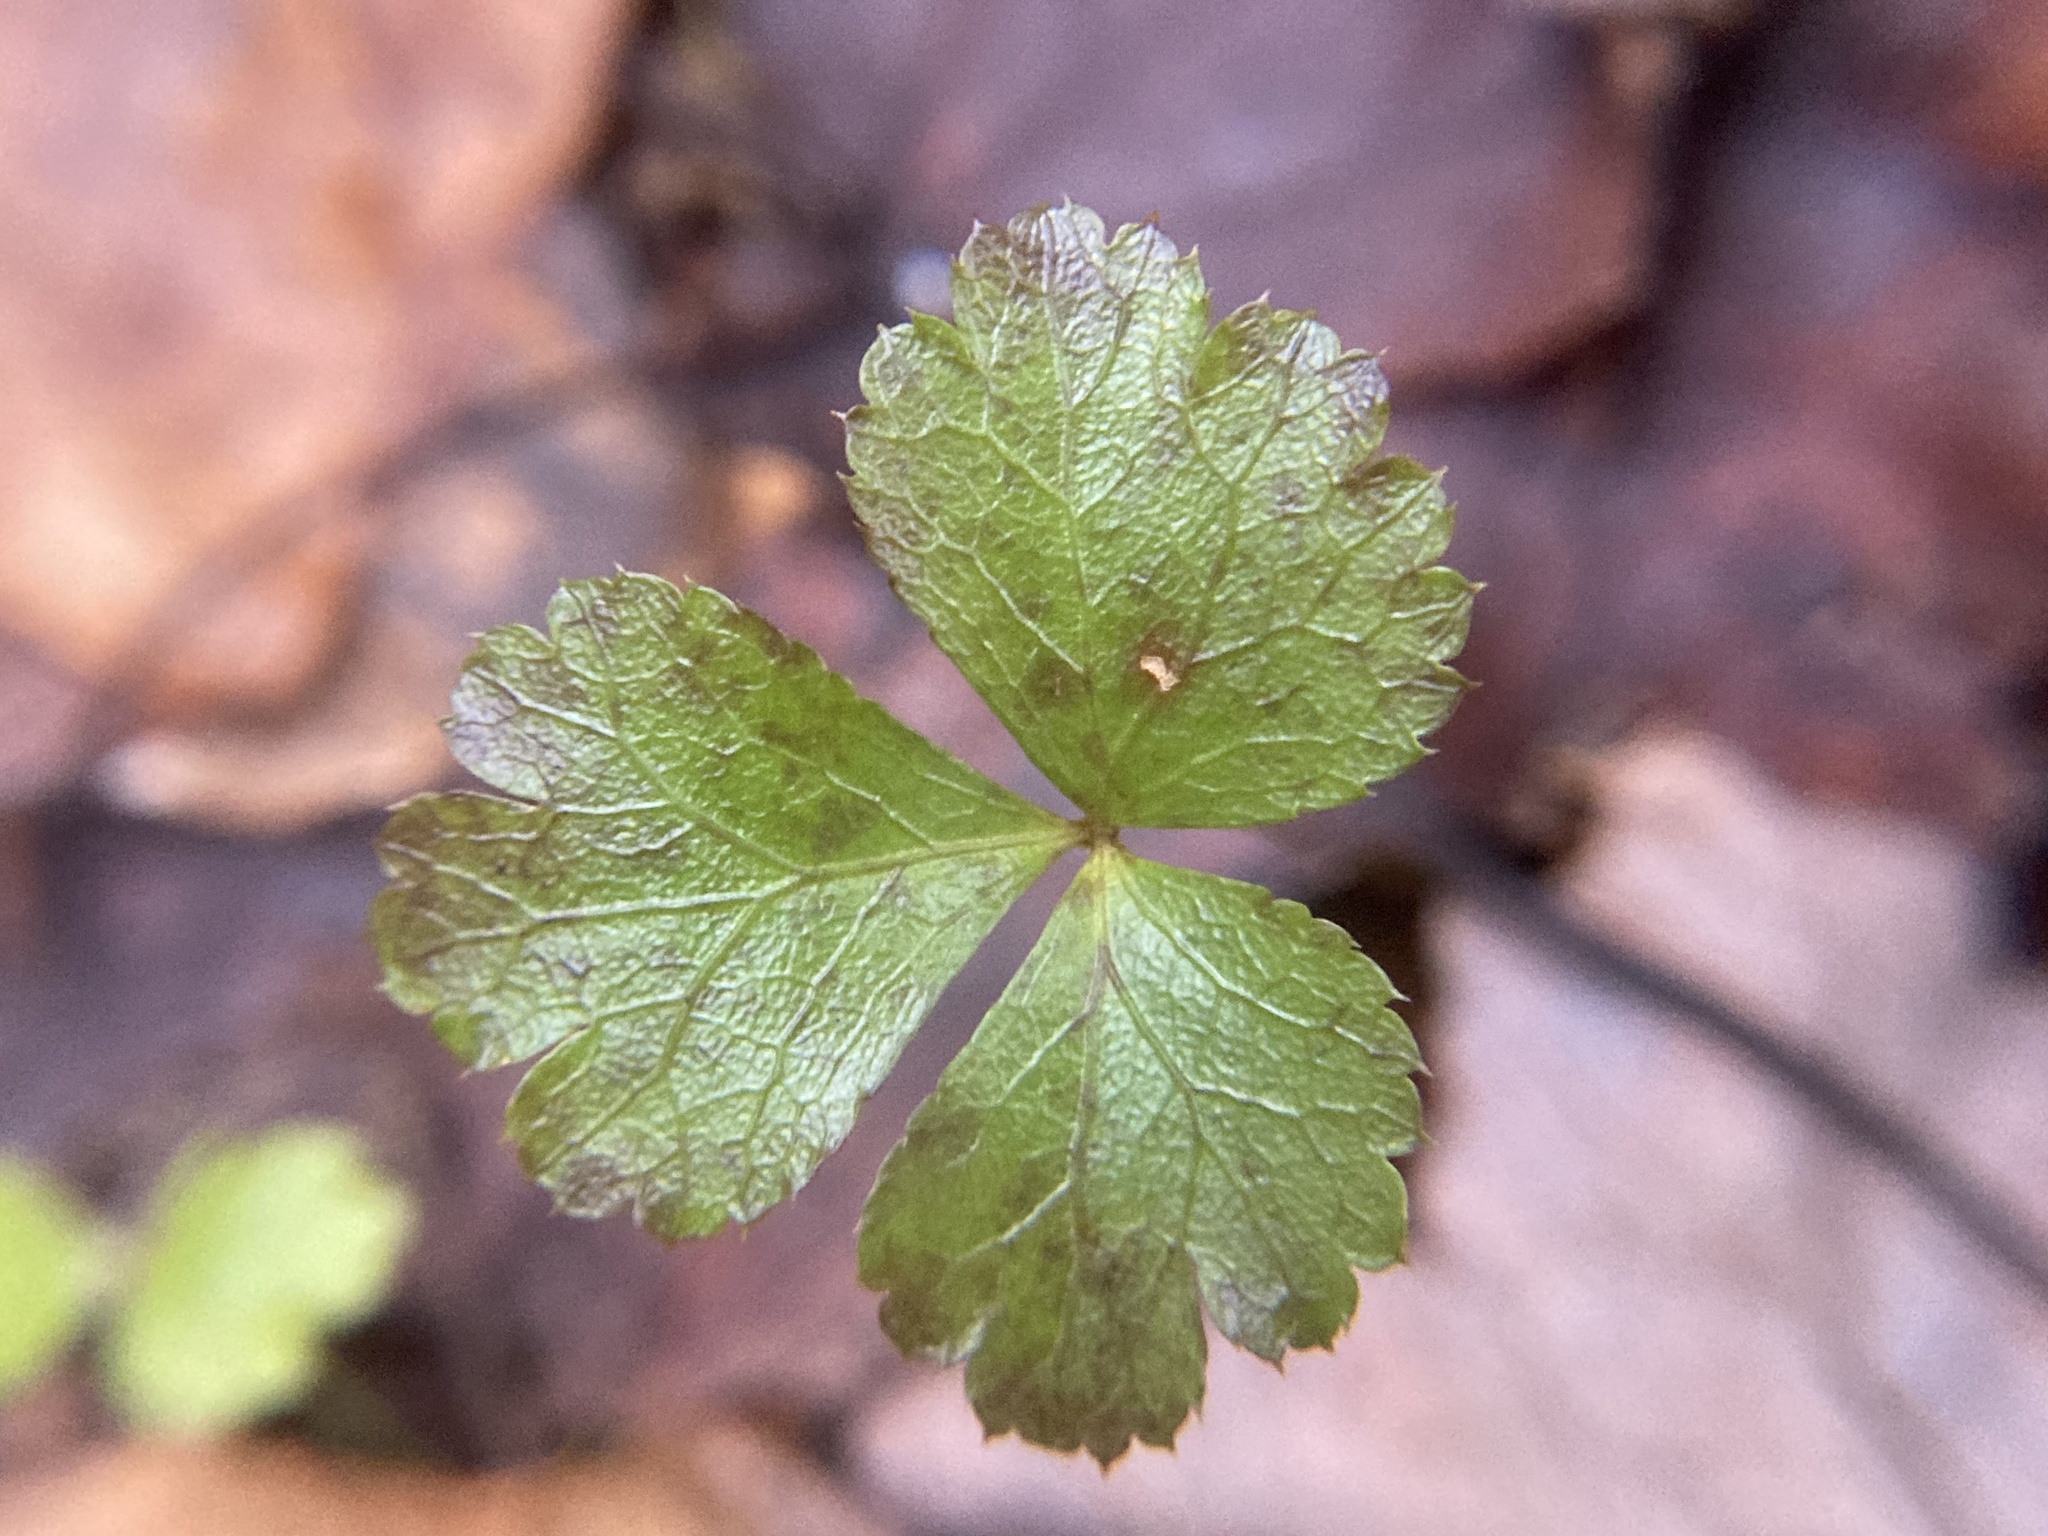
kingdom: Plantae
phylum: Tracheophyta
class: Magnoliopsida
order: Ranunculales
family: Ranunculaceae
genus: Coptis
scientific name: Coptis trifolia
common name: Canker-root
